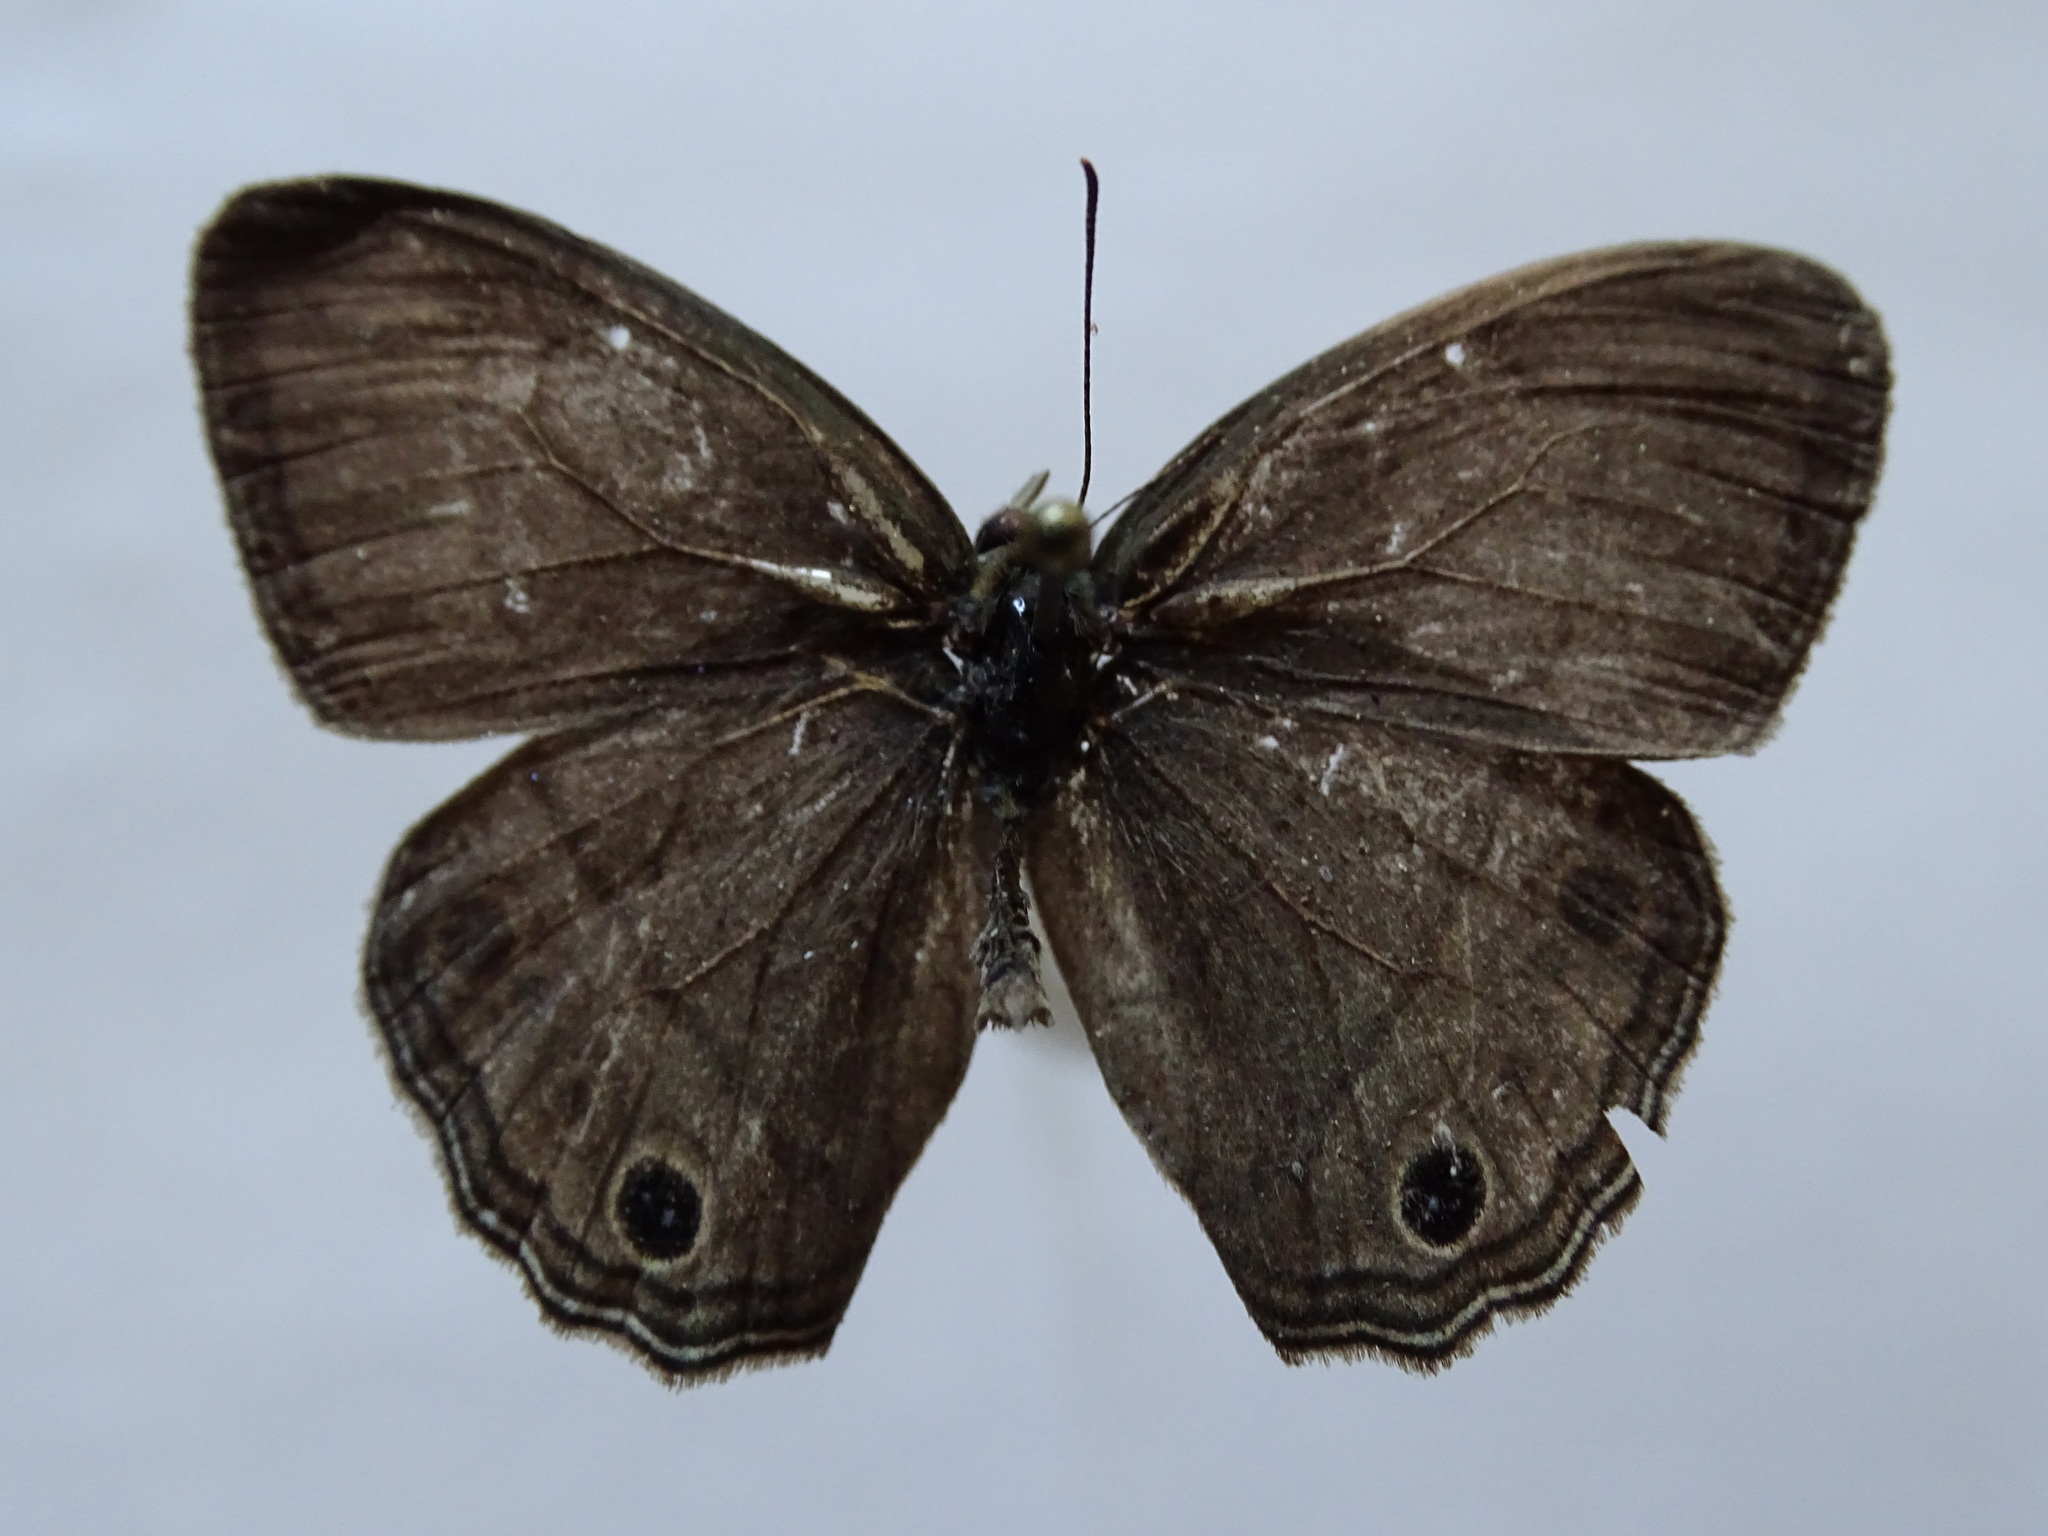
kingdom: Animalia
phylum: Arthropoda
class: Insecta
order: Lepidoptera
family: Nymphalidae
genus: Vareuptychia
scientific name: Vareuptychia similis
